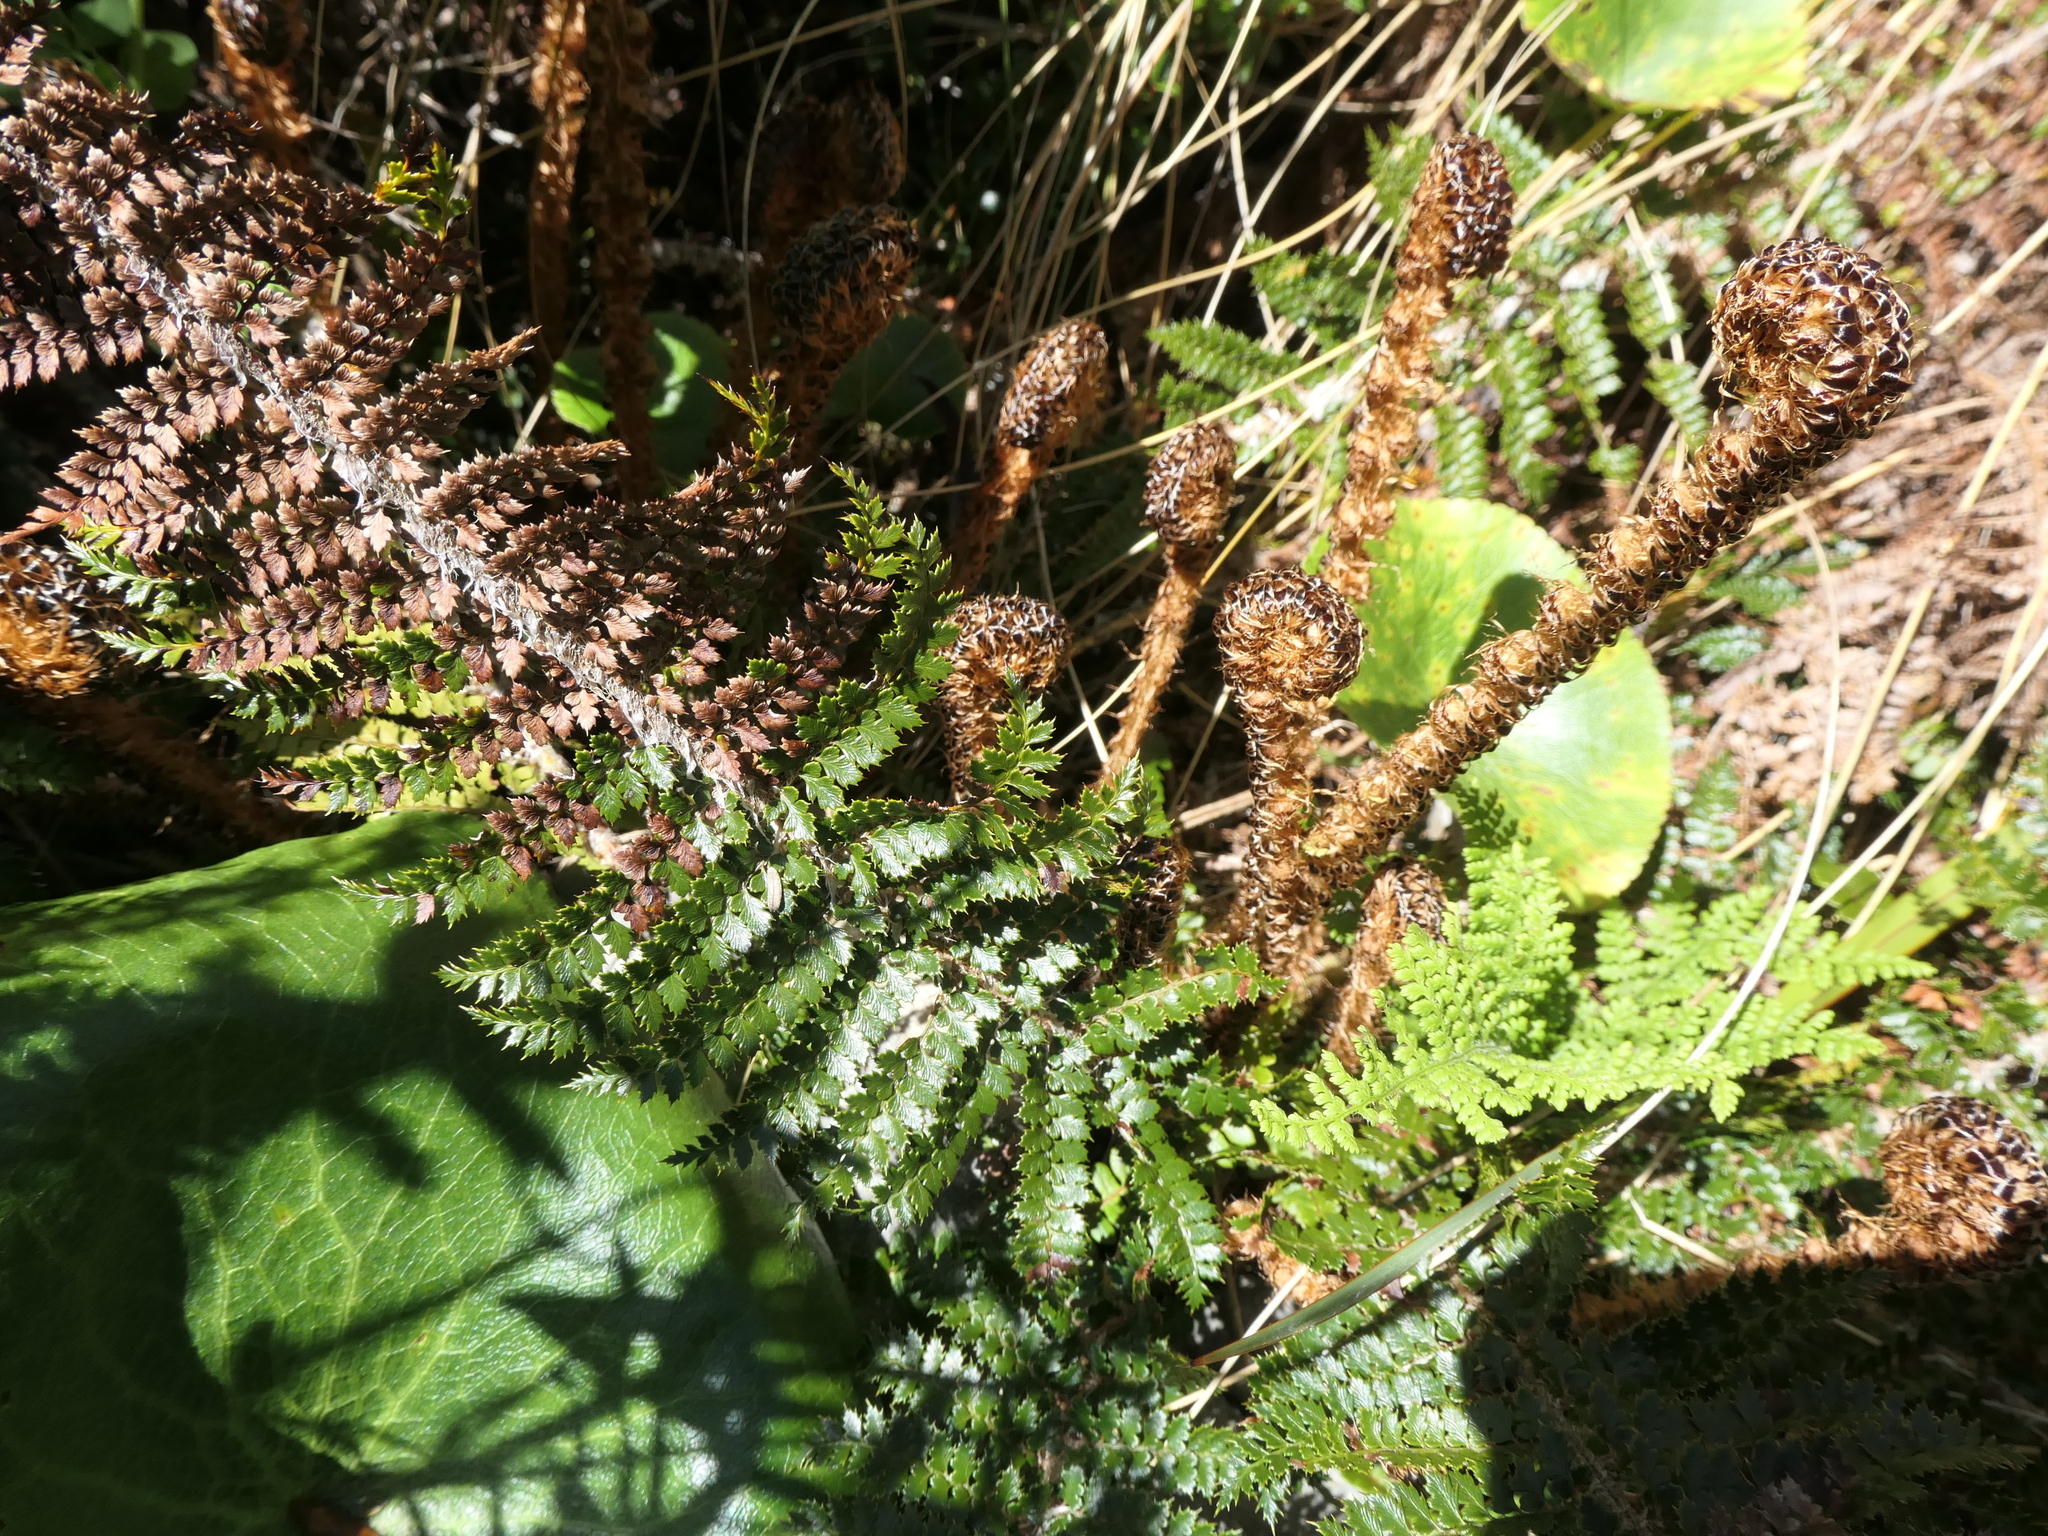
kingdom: Plantae
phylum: Tracheophyta
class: Polypodiopsida
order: Polypodiales
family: Dryopteridaceae
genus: Polystichum
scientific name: Polystichum vestitum
